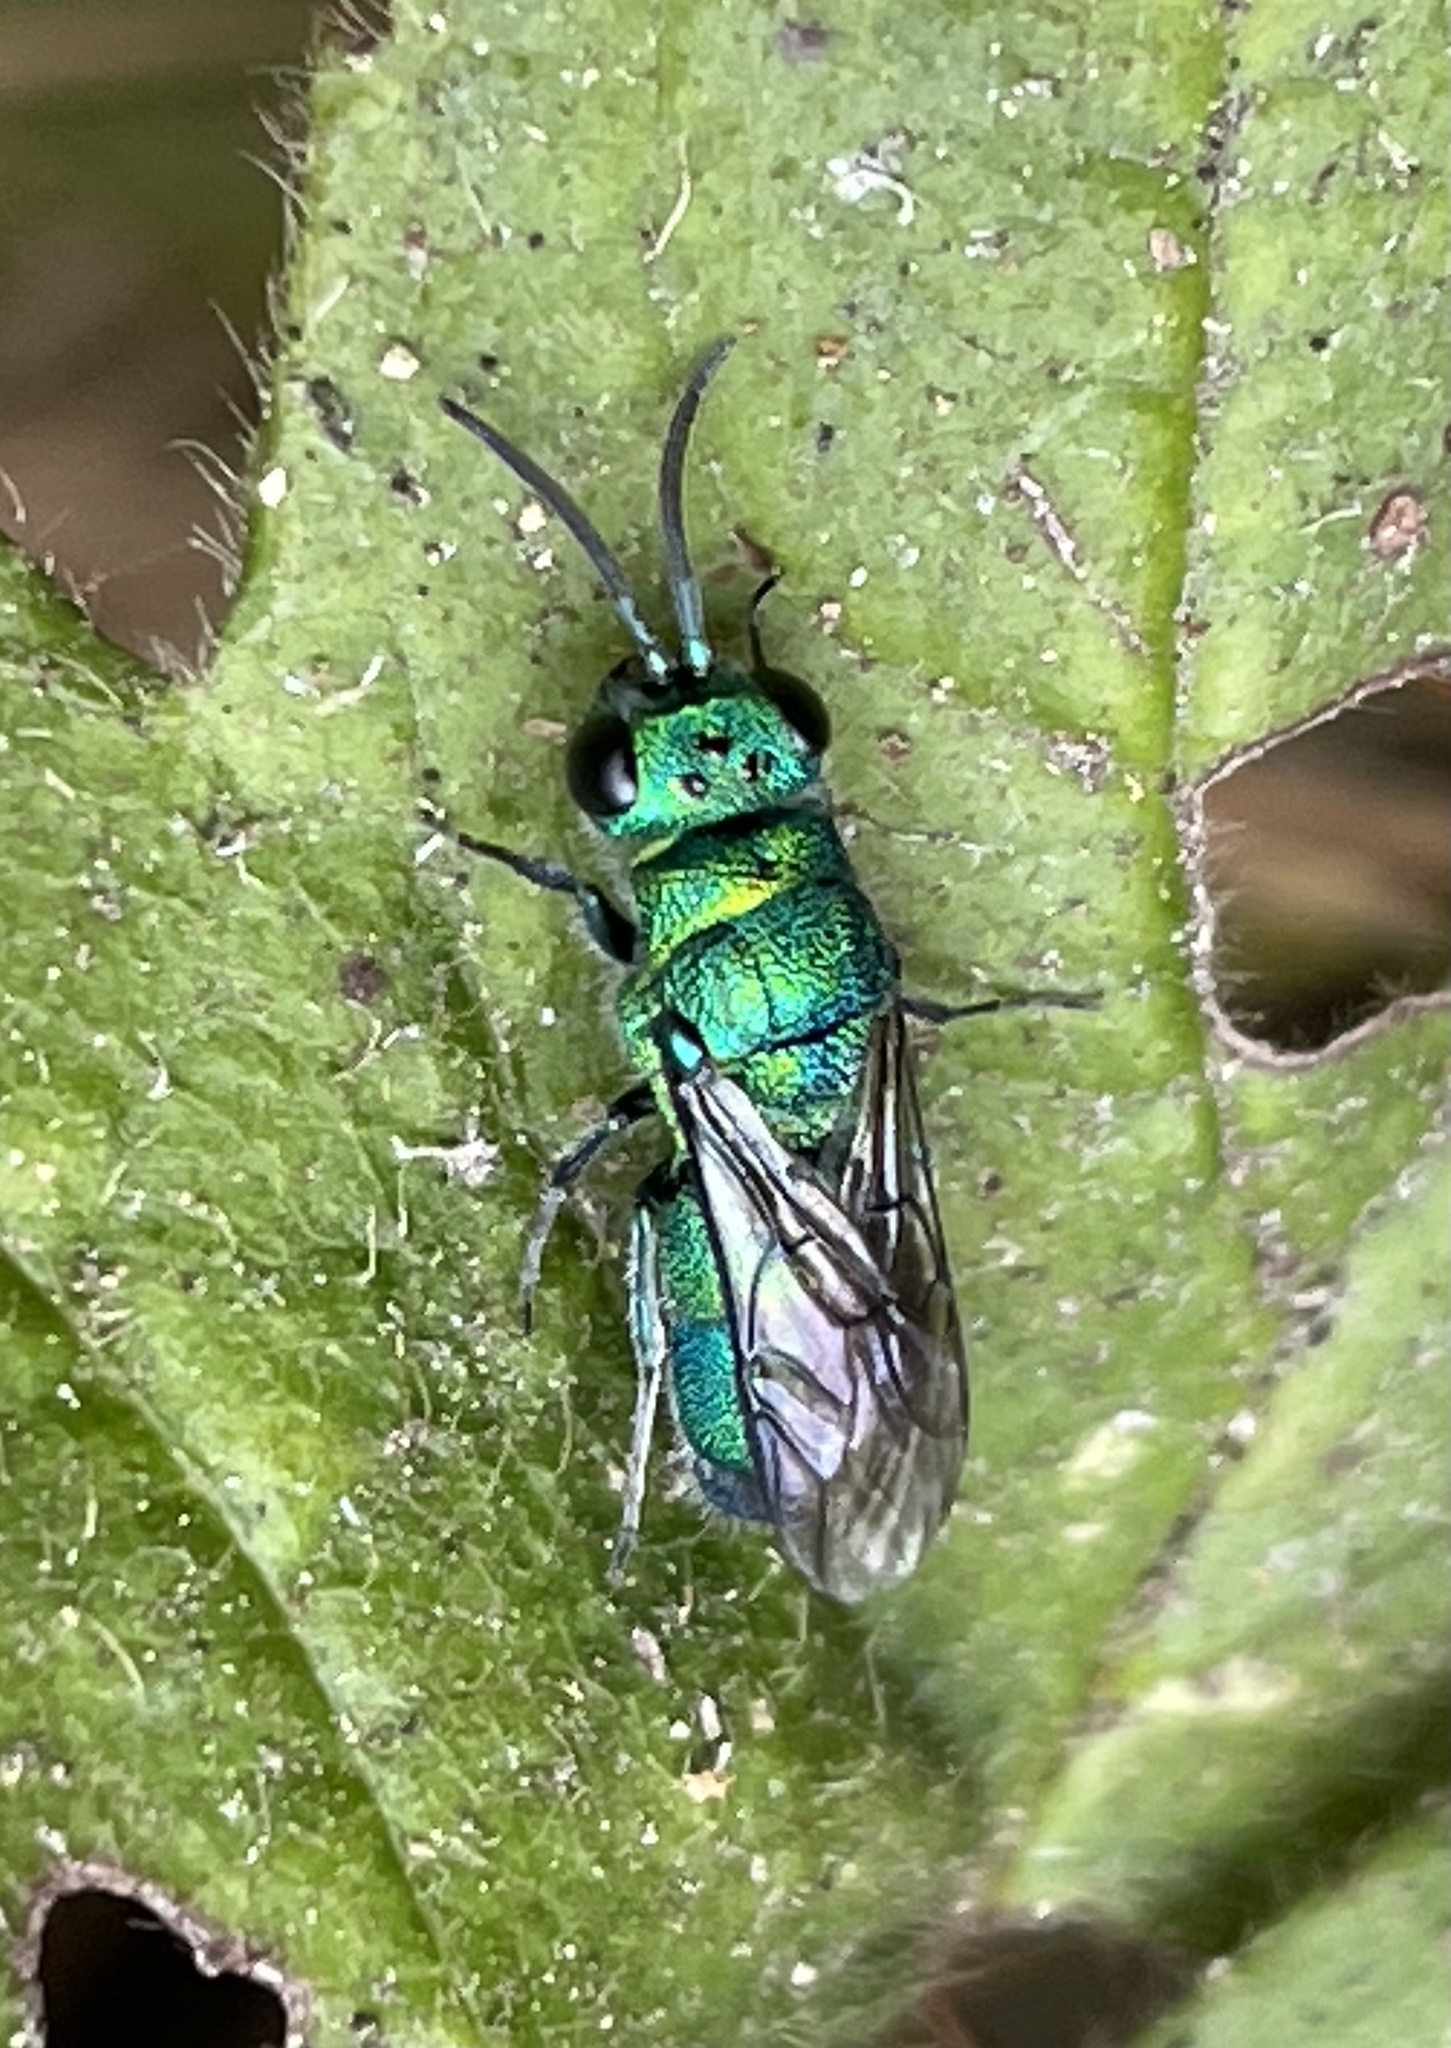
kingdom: Animalia
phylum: Arthropoda
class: Insecta
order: Hymenoptera
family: Chrysididae
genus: Chrysis
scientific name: Chrysis angolensis
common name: Cuckoo wasp
